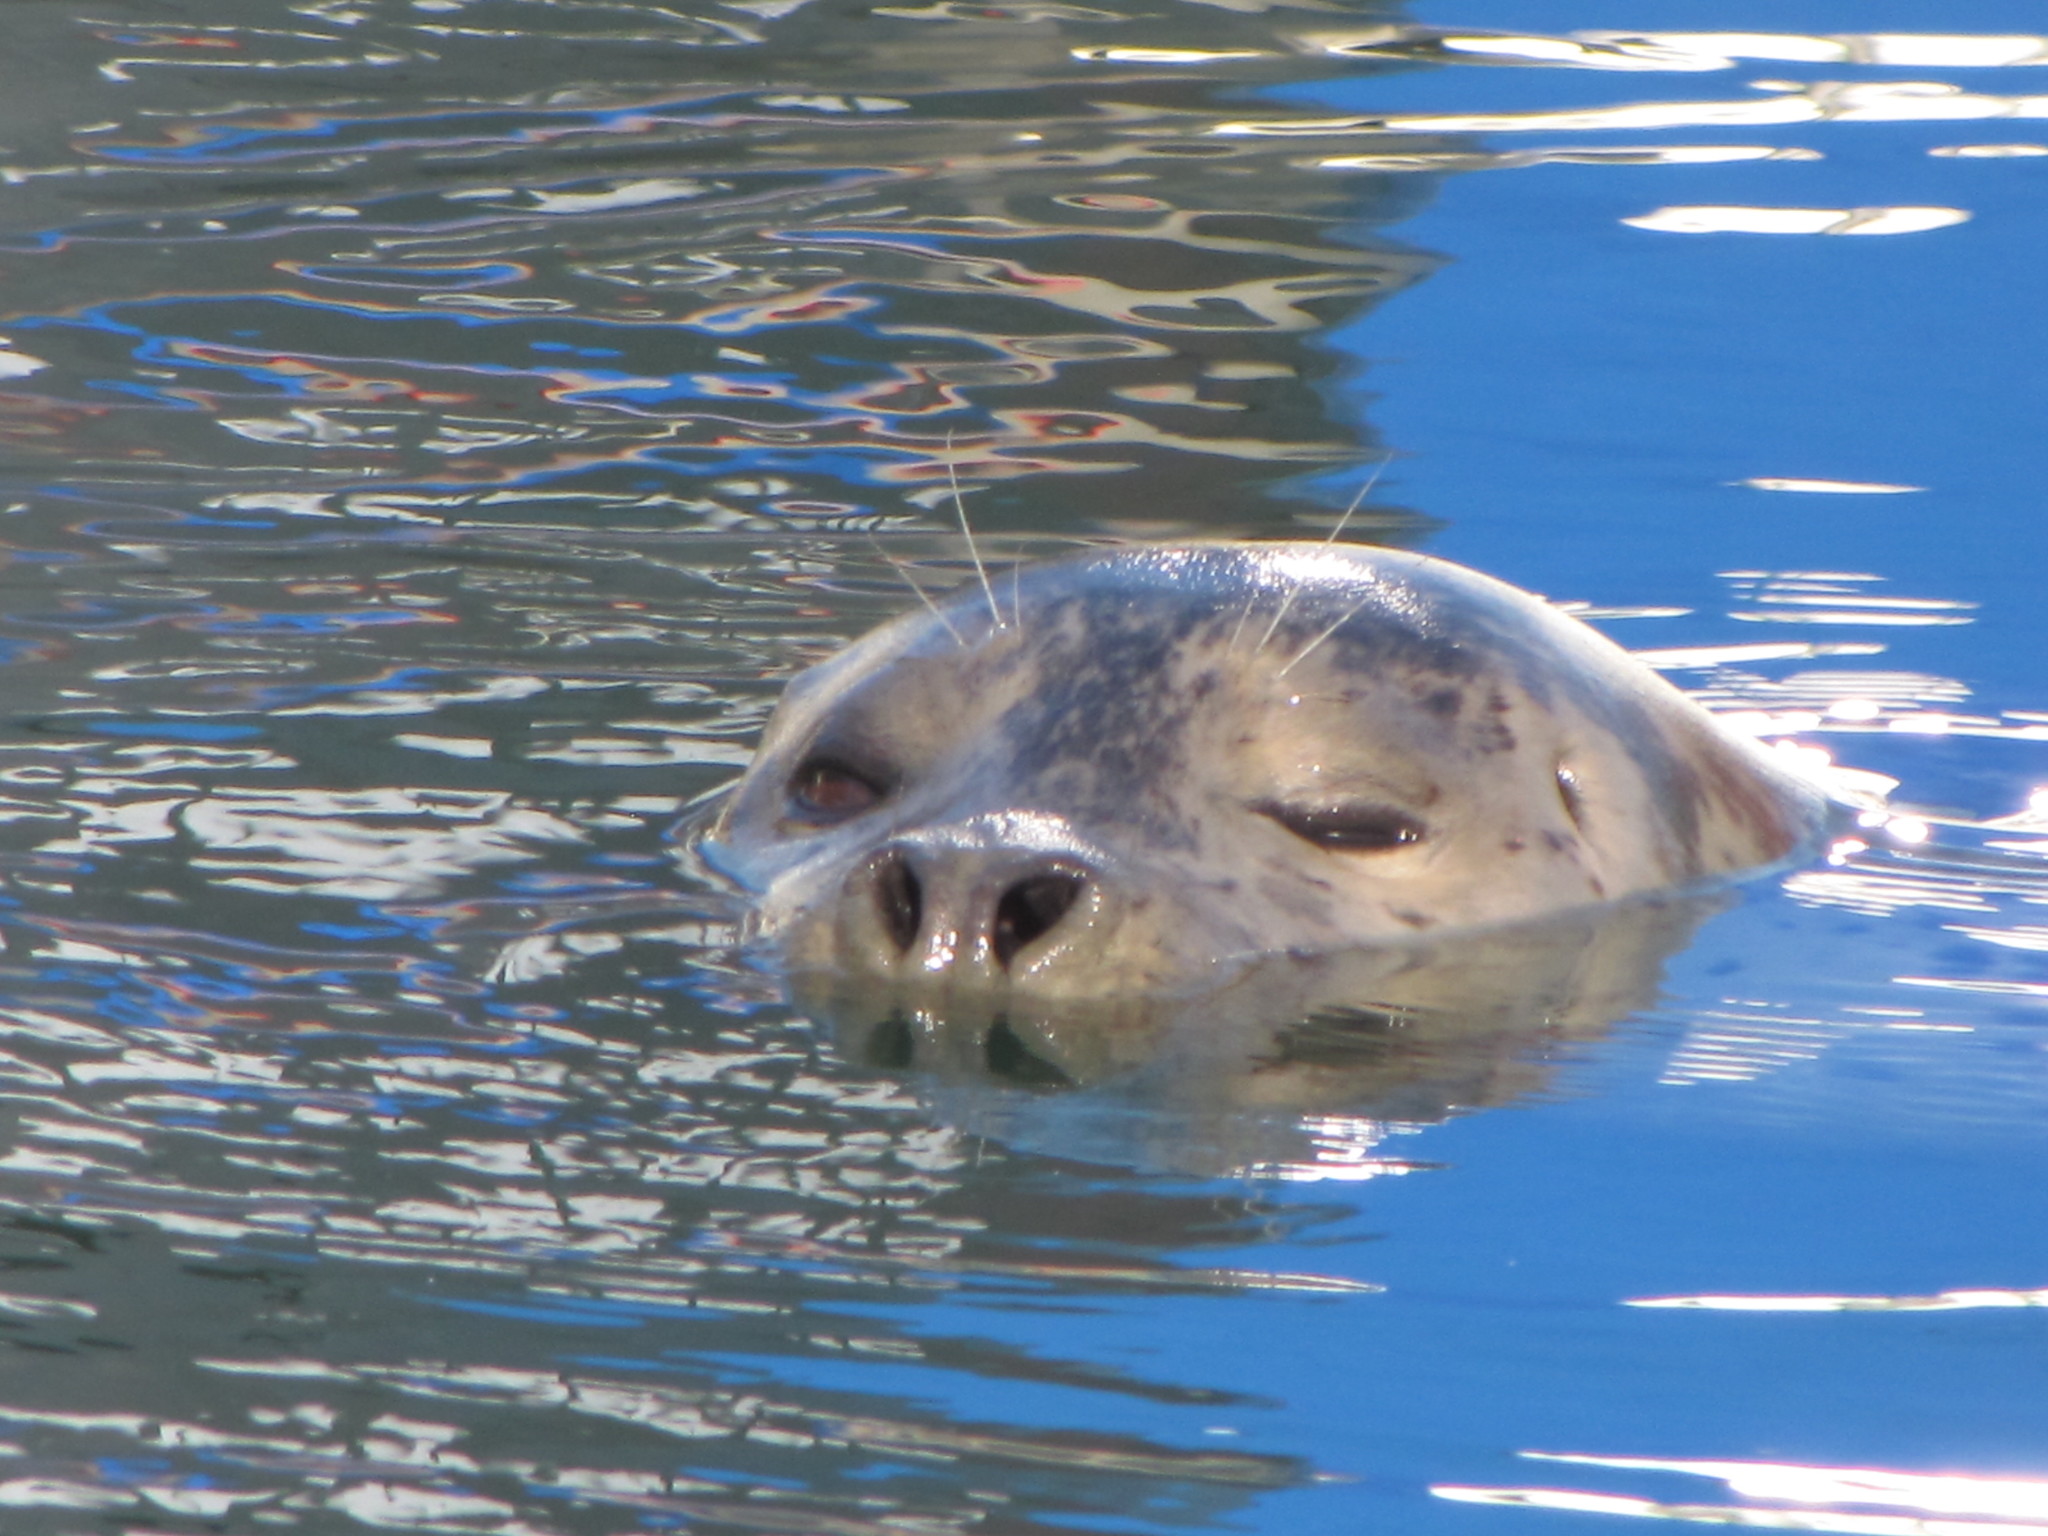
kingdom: Animalia
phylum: Chordata
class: Mammalia
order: Carnivora
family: Phocidae
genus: Phoca
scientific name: Phoca vitulina
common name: Harbor seal
